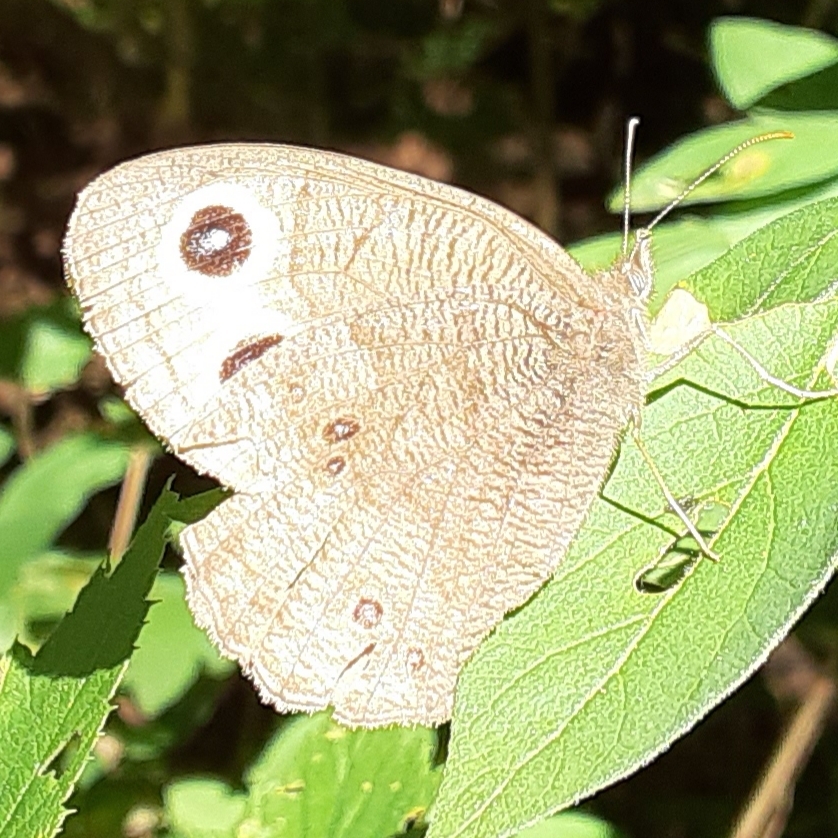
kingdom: Animalia
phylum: Arthropoda
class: Insecta
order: Lepidoptera
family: Nymphalidae
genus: Cercyonis
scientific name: Cercyonis pegala
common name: Common wood-nymph
